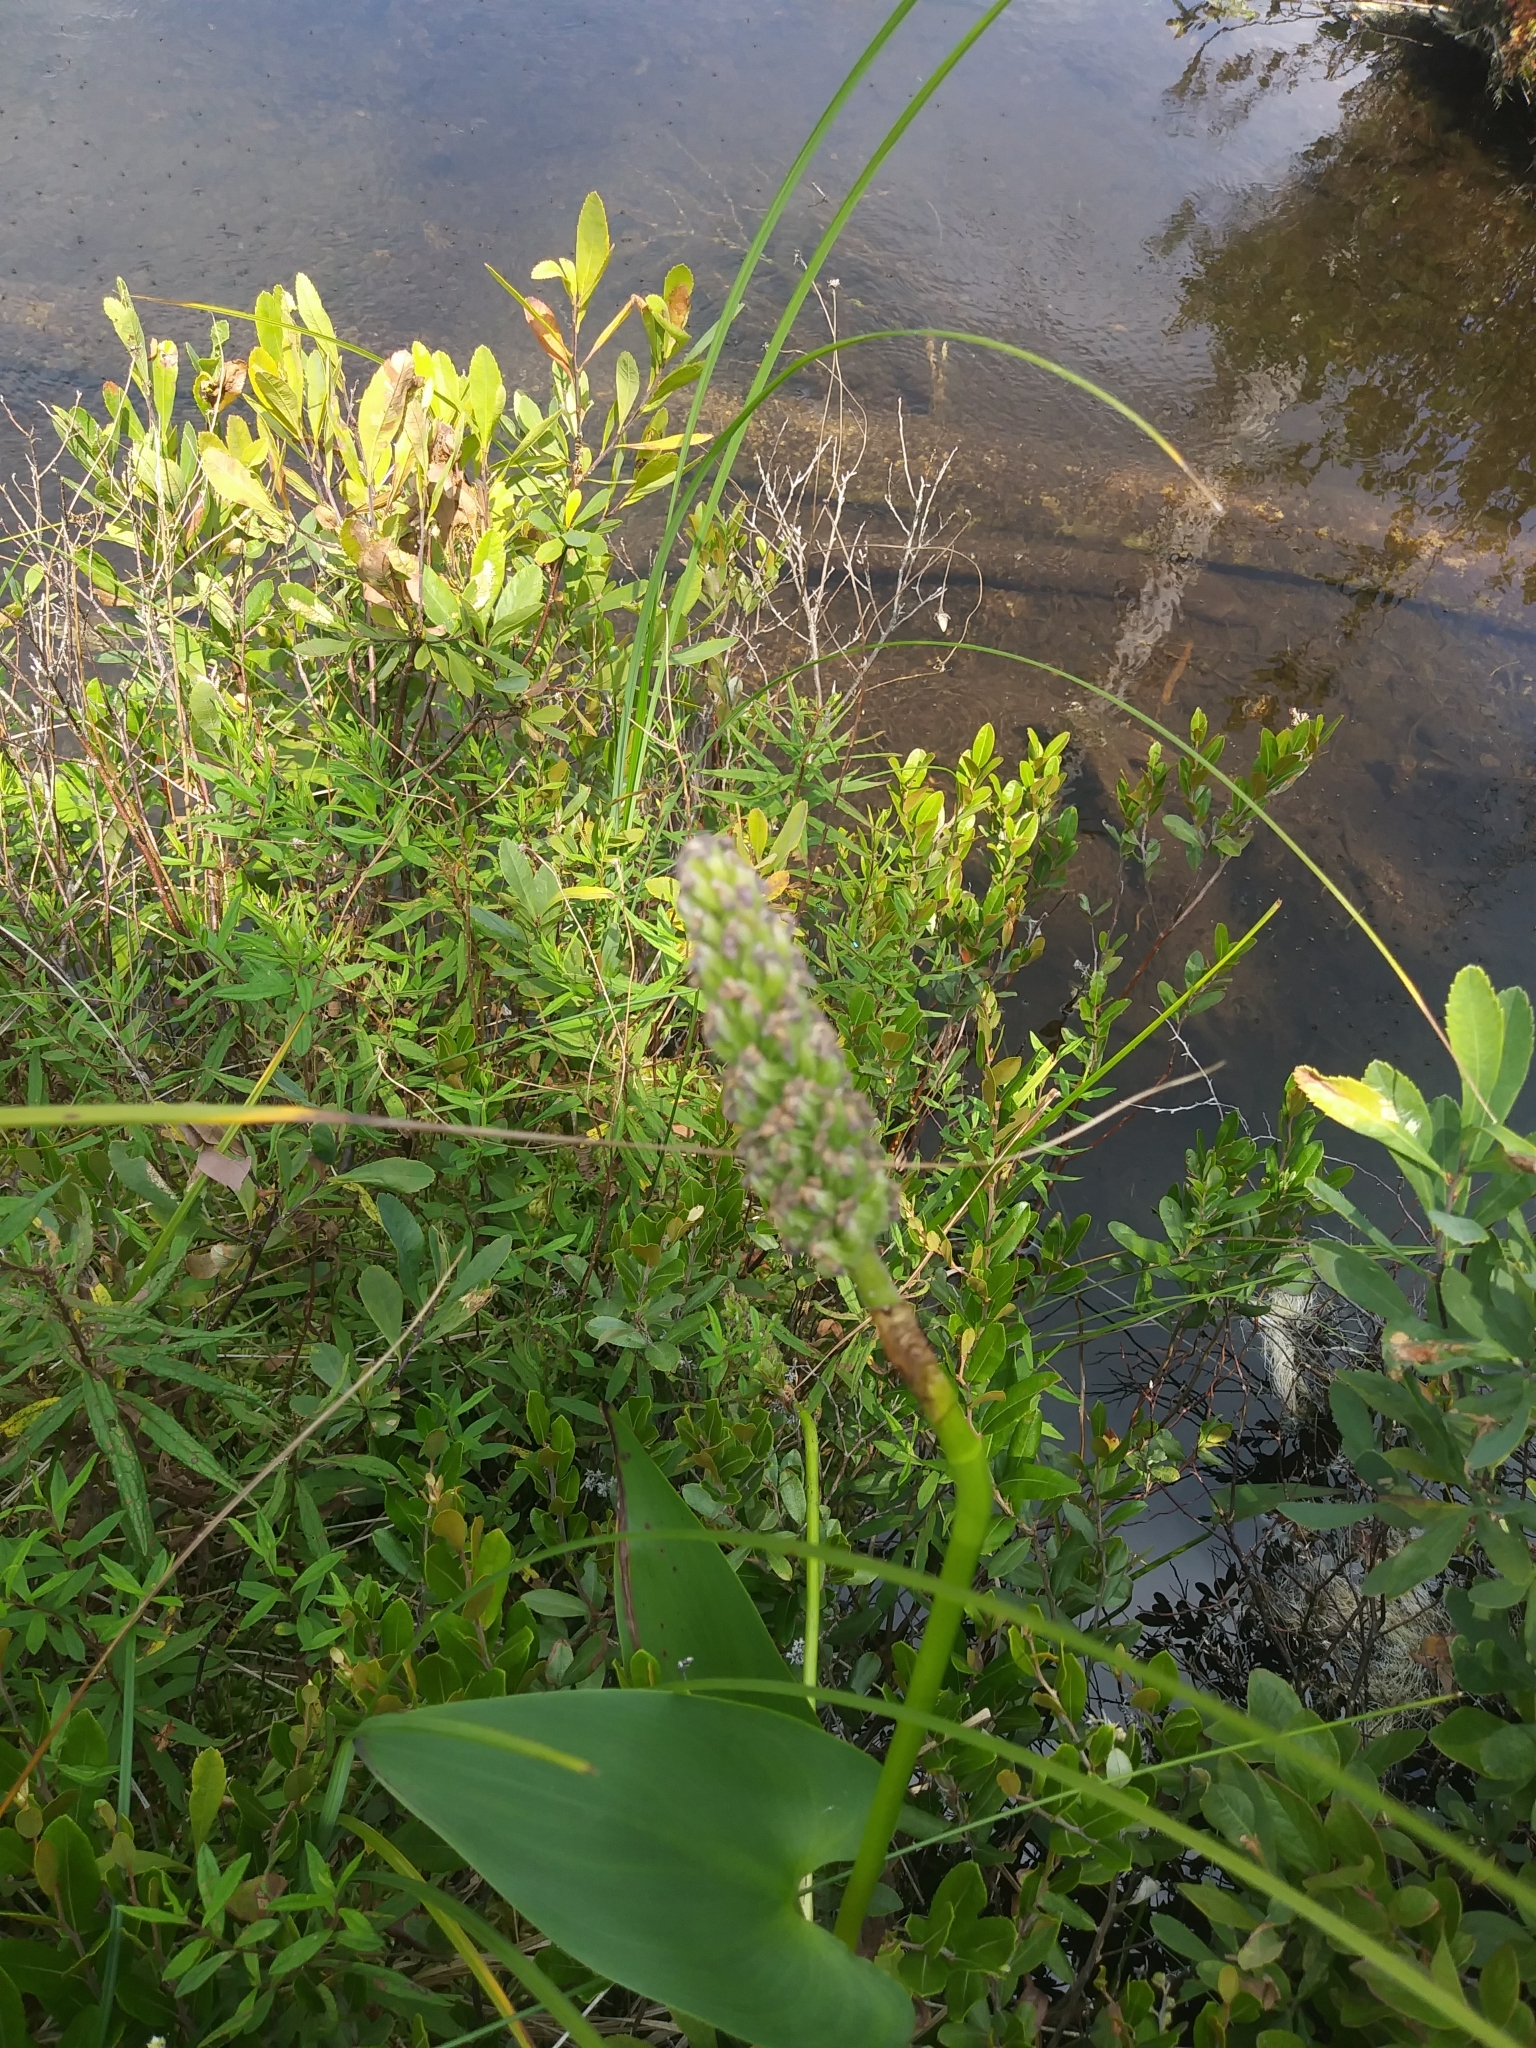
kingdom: Plantae
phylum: Tracheophyta
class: Liliopsida
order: Commelinales
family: Pontederiaceae
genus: Pontederia
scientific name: Pontederia cordata
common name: Pickerelweed
